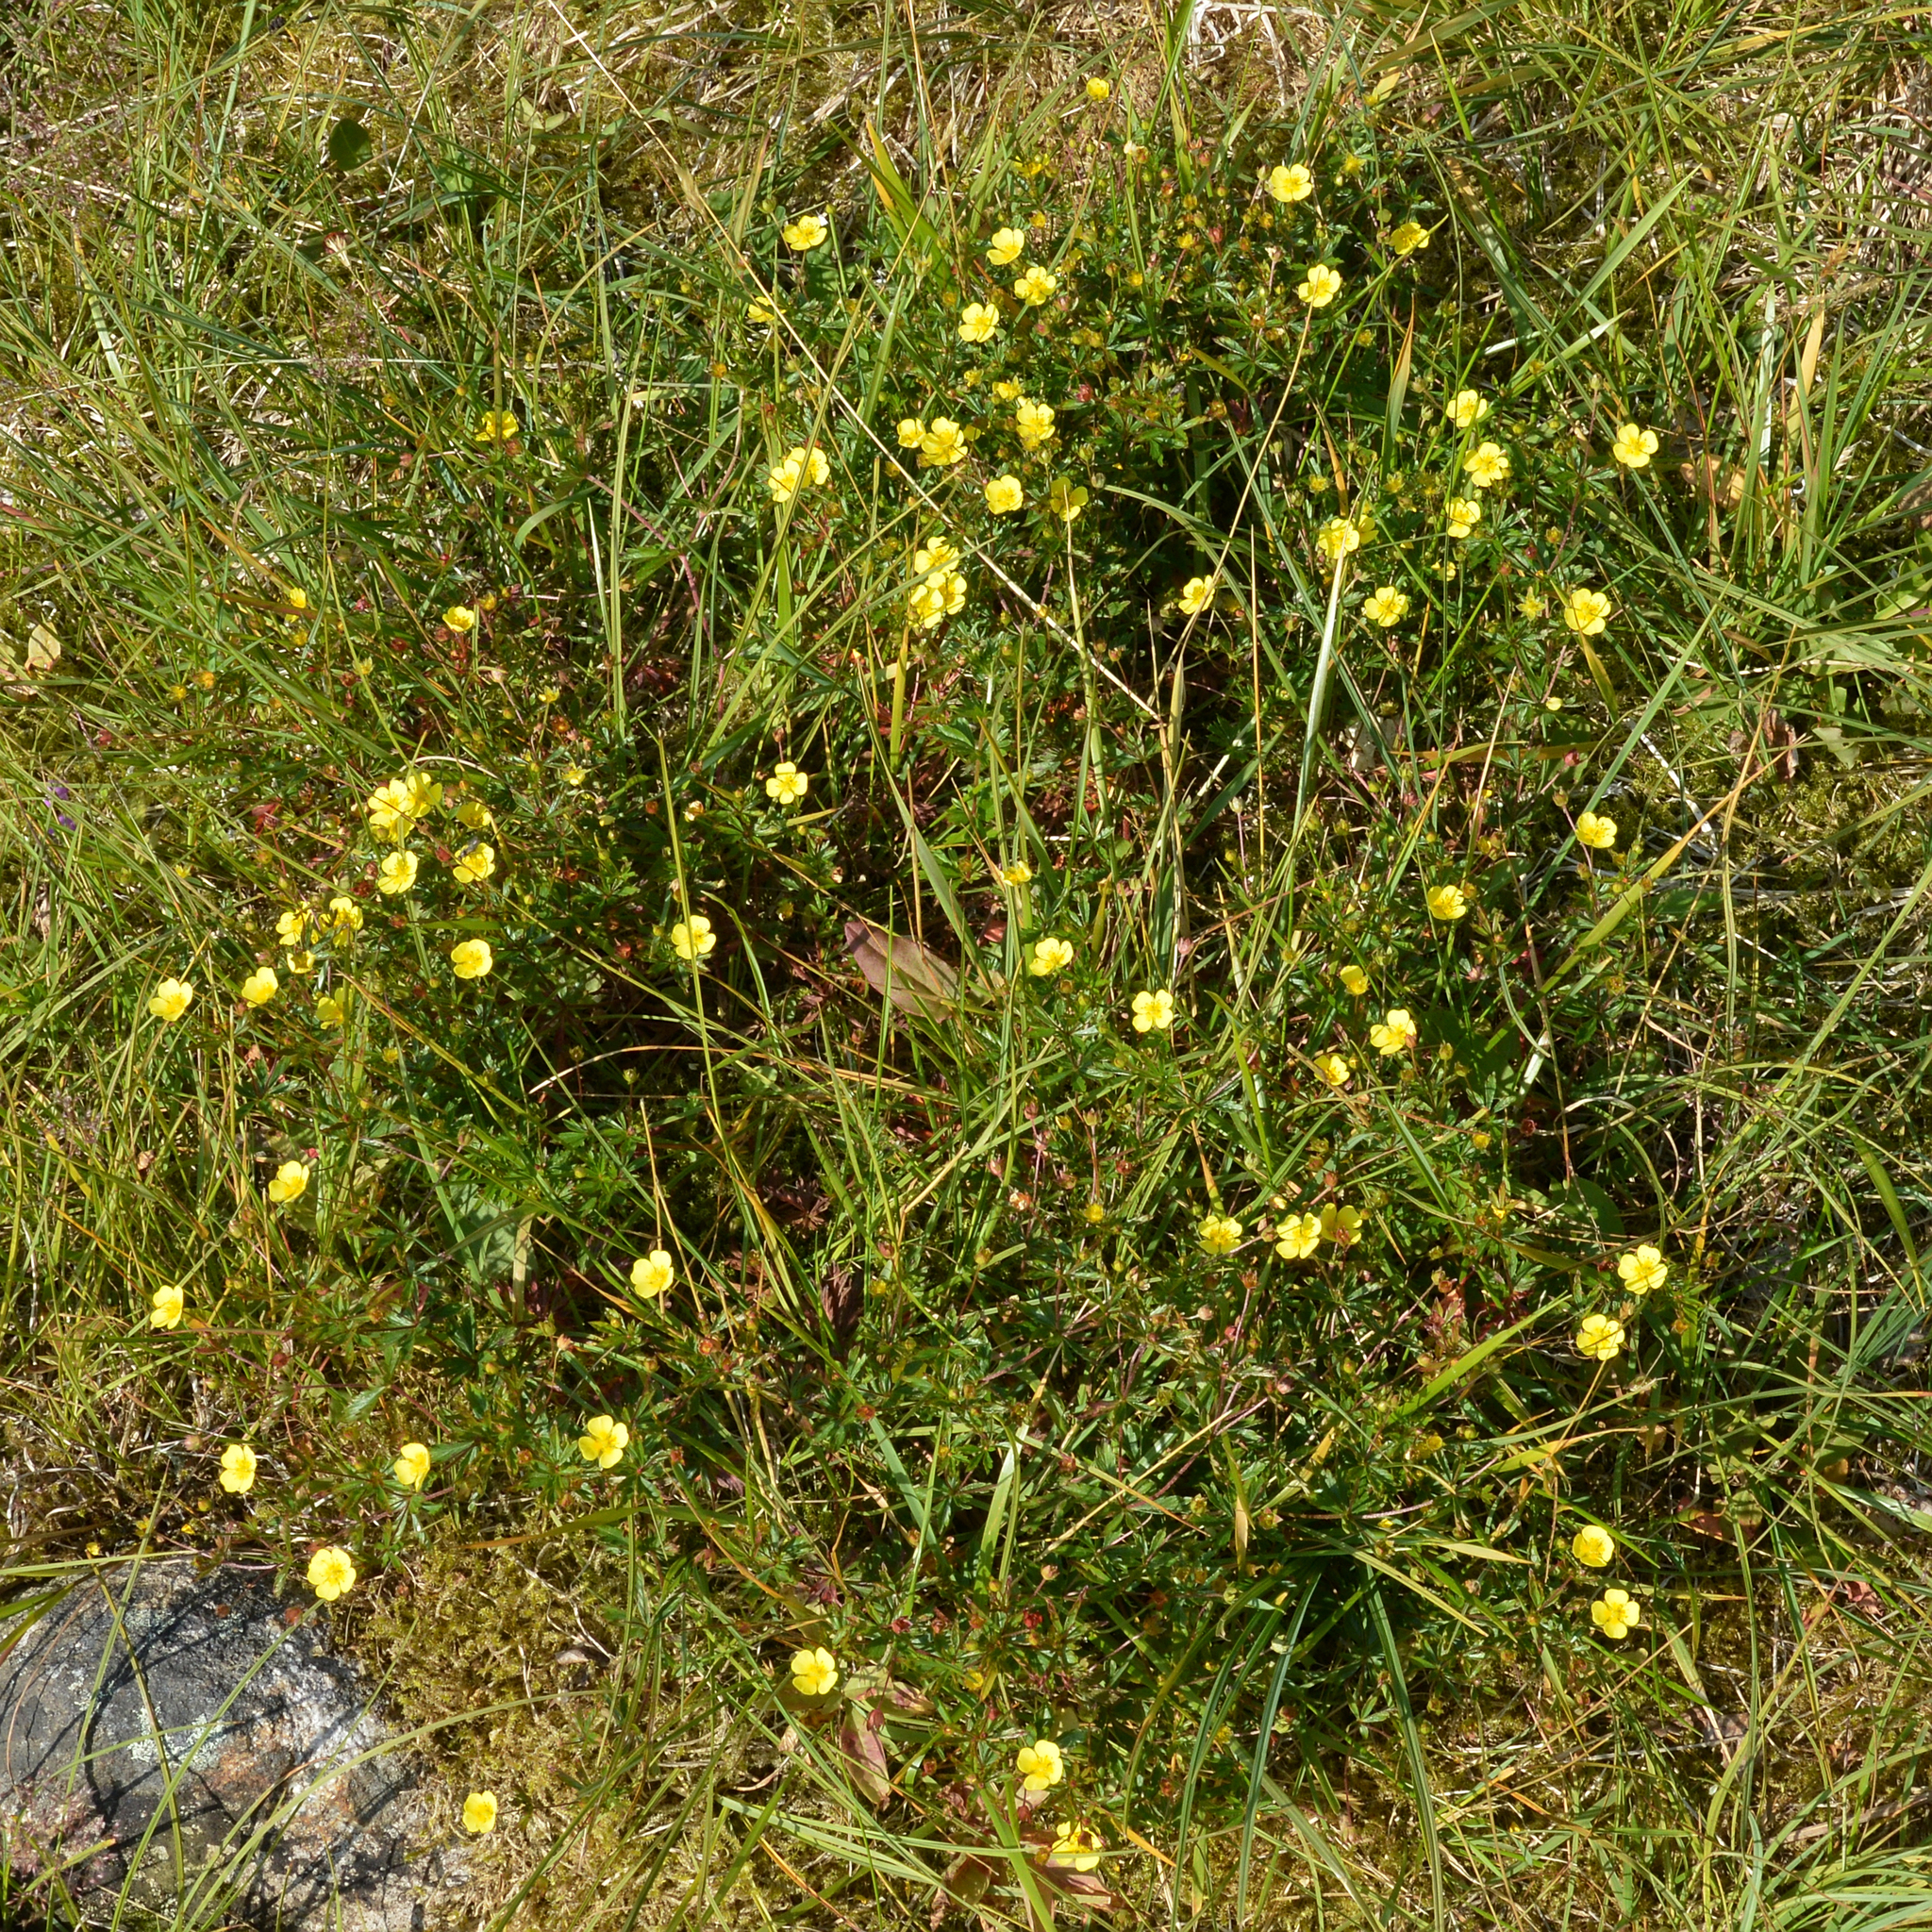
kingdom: Plantae
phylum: Tracheophyta
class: Magnoliopsida
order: Rosales
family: Rosaceae
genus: Potentilla
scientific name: Potentilla erecta
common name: Tormentil
